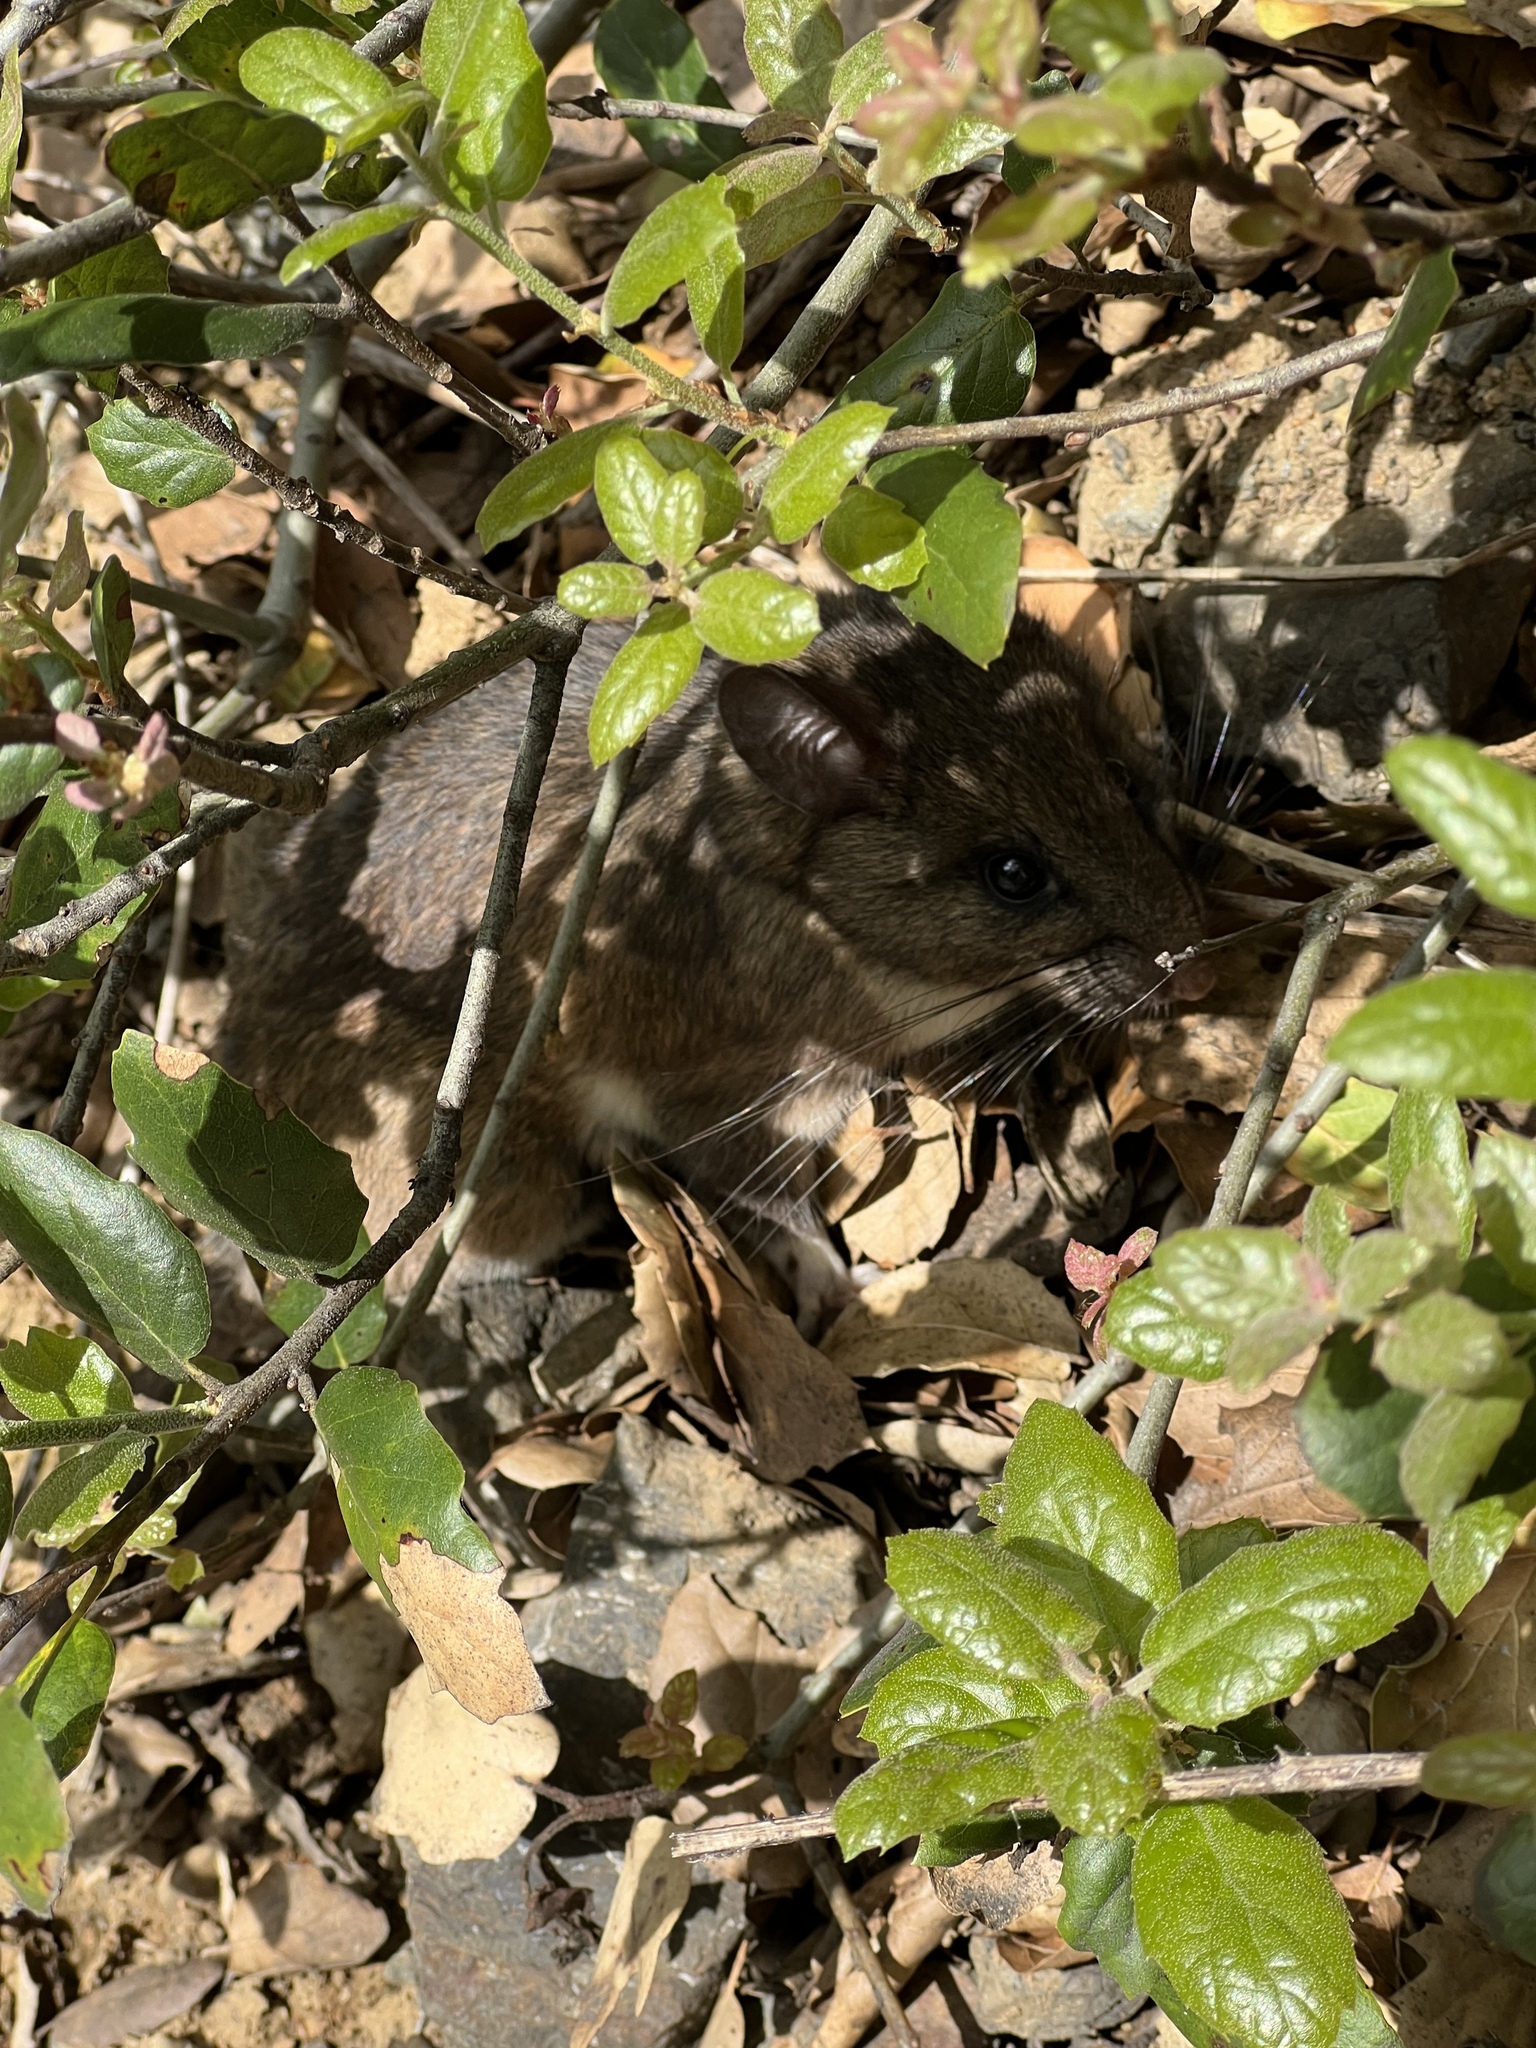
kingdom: Animalia
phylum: Chordata
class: Mammalia
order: Rodentia
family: Cricetidae
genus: Neotoma
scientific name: Neotoma fuscipes
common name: Dusky-footed woodrat
